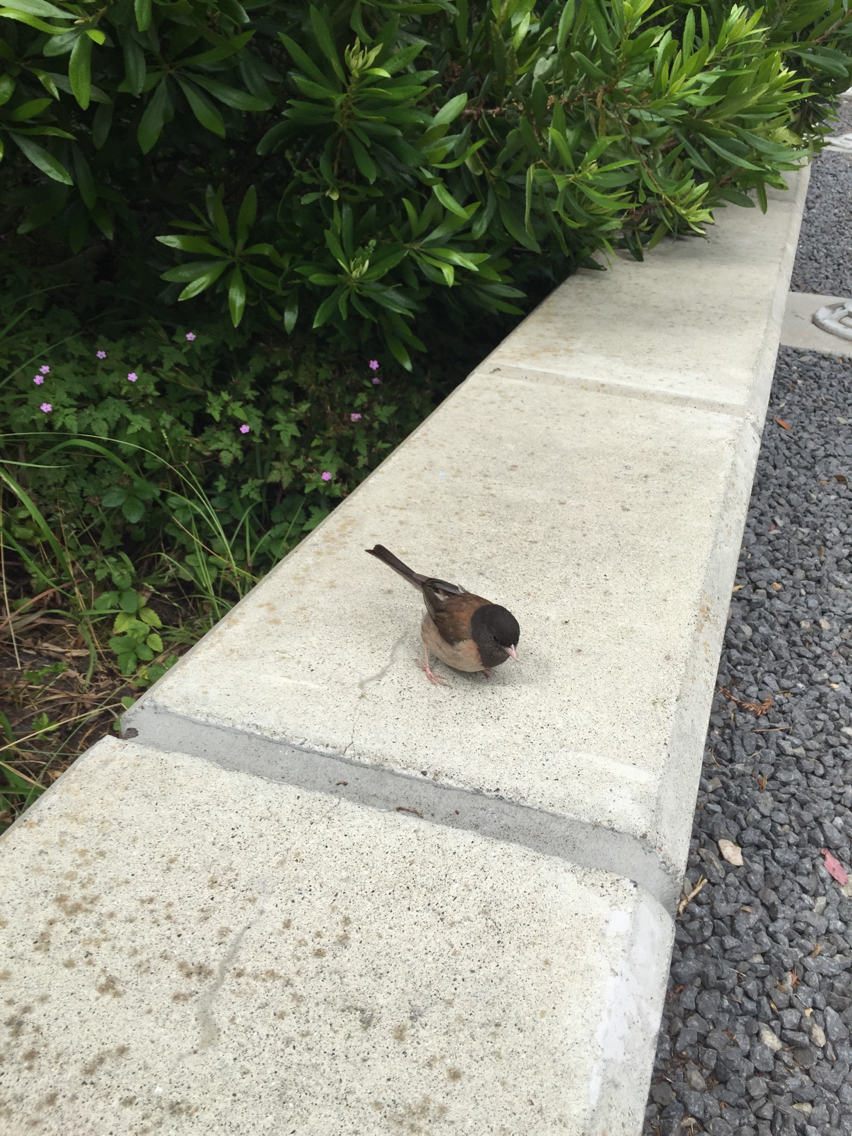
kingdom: Animalia
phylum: Chordata
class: Aves
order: Passeriformes
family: Passerellidae
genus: Junco
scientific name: Junco hyemalis
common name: Dark-eyed junco
